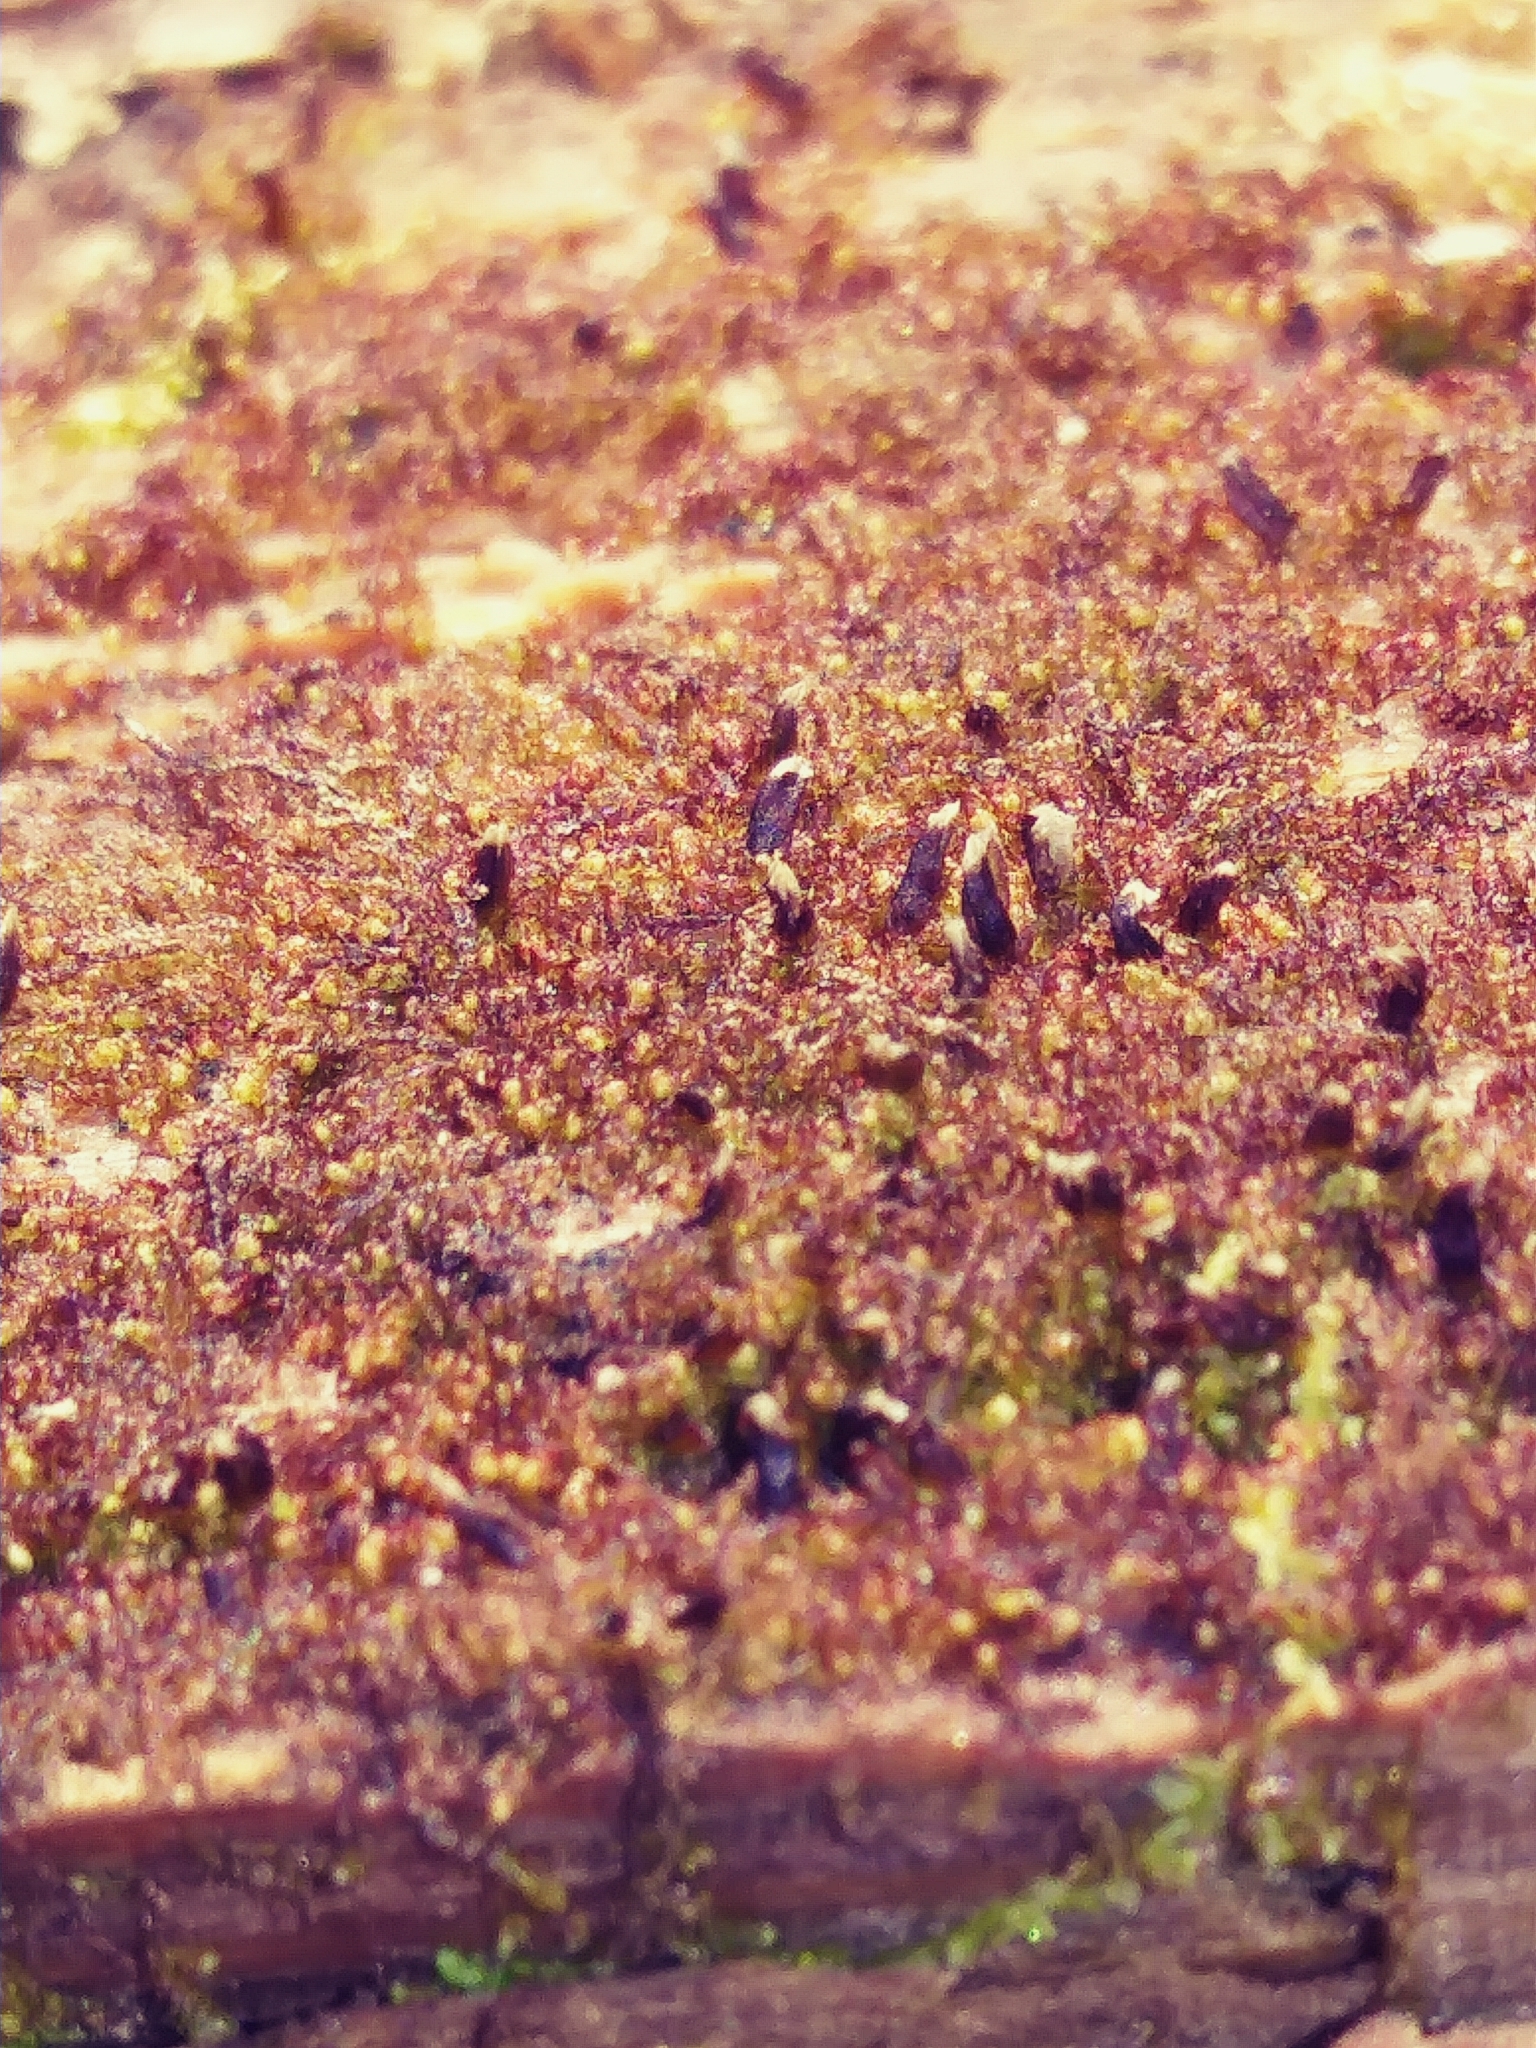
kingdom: Plantae
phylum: Marchantiophyta
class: Jungermanniopsida
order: Jungermanniales
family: Cephaloziaceae
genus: Nowellia
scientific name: Nowellia curvifolia
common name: Wood rustwort
